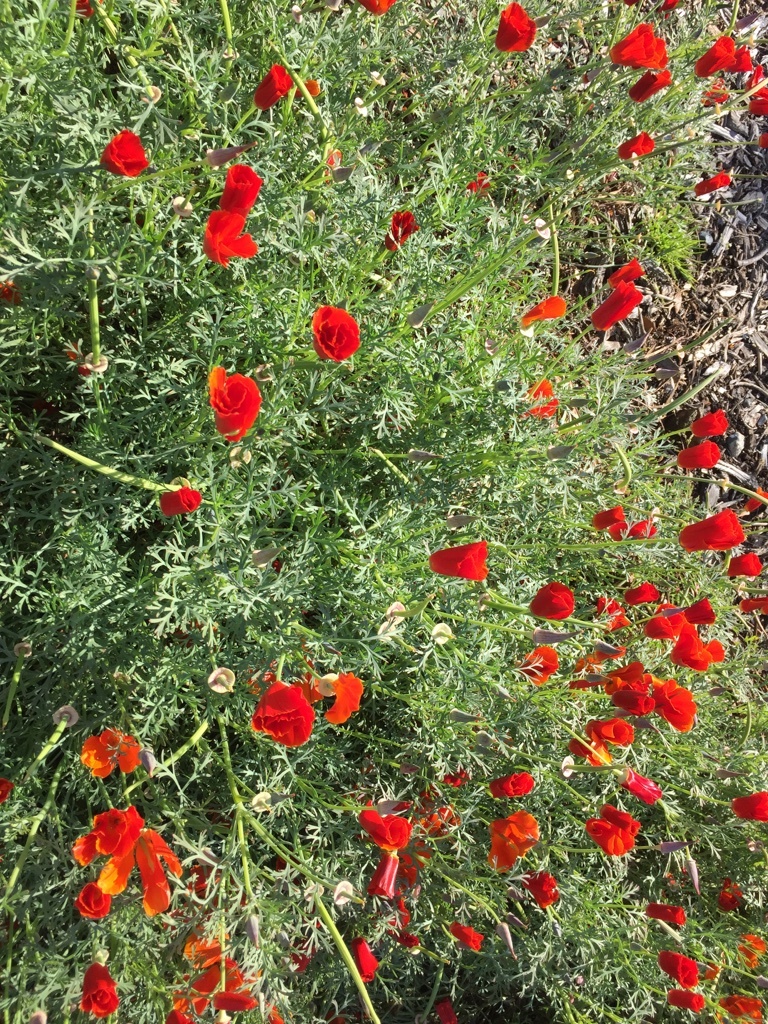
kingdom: Plantae
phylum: Tracheophyta
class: Magnoliopsida
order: Ranunculales
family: Papaveraceae
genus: Eschscholzia
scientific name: Eschscholzia californica
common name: California poppy
